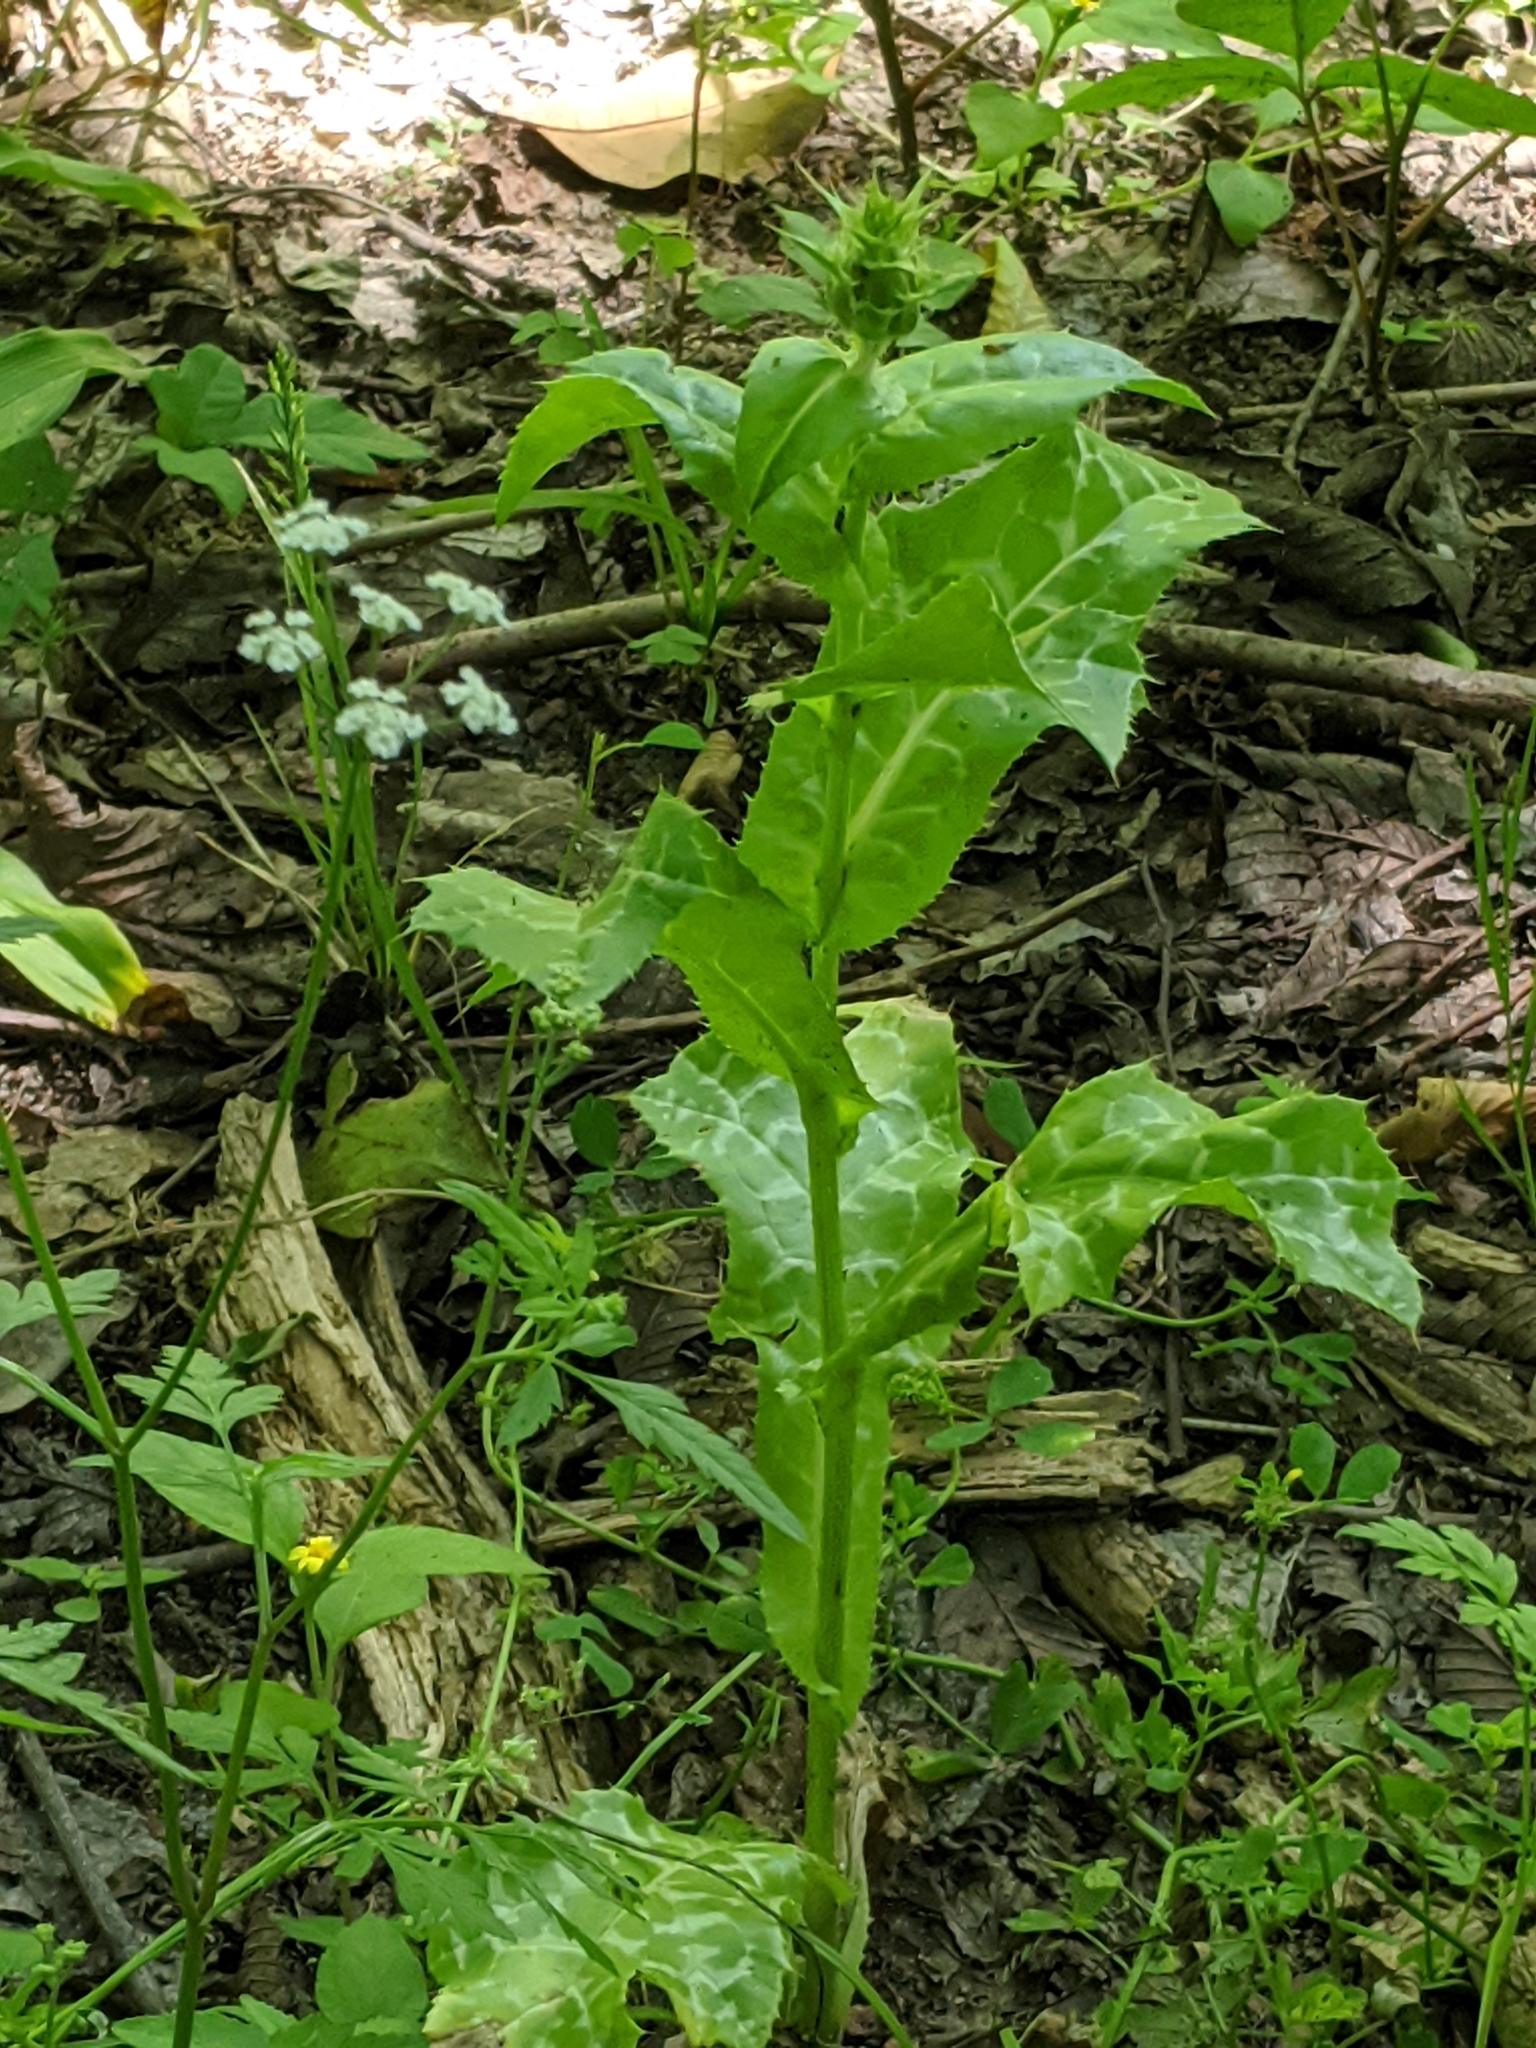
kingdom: Plantae
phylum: Tracheophyta
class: Magnoliopsida
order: Asterales
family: Asteraceae
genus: Silybum
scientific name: Silybum marianum
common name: Milk thistle
